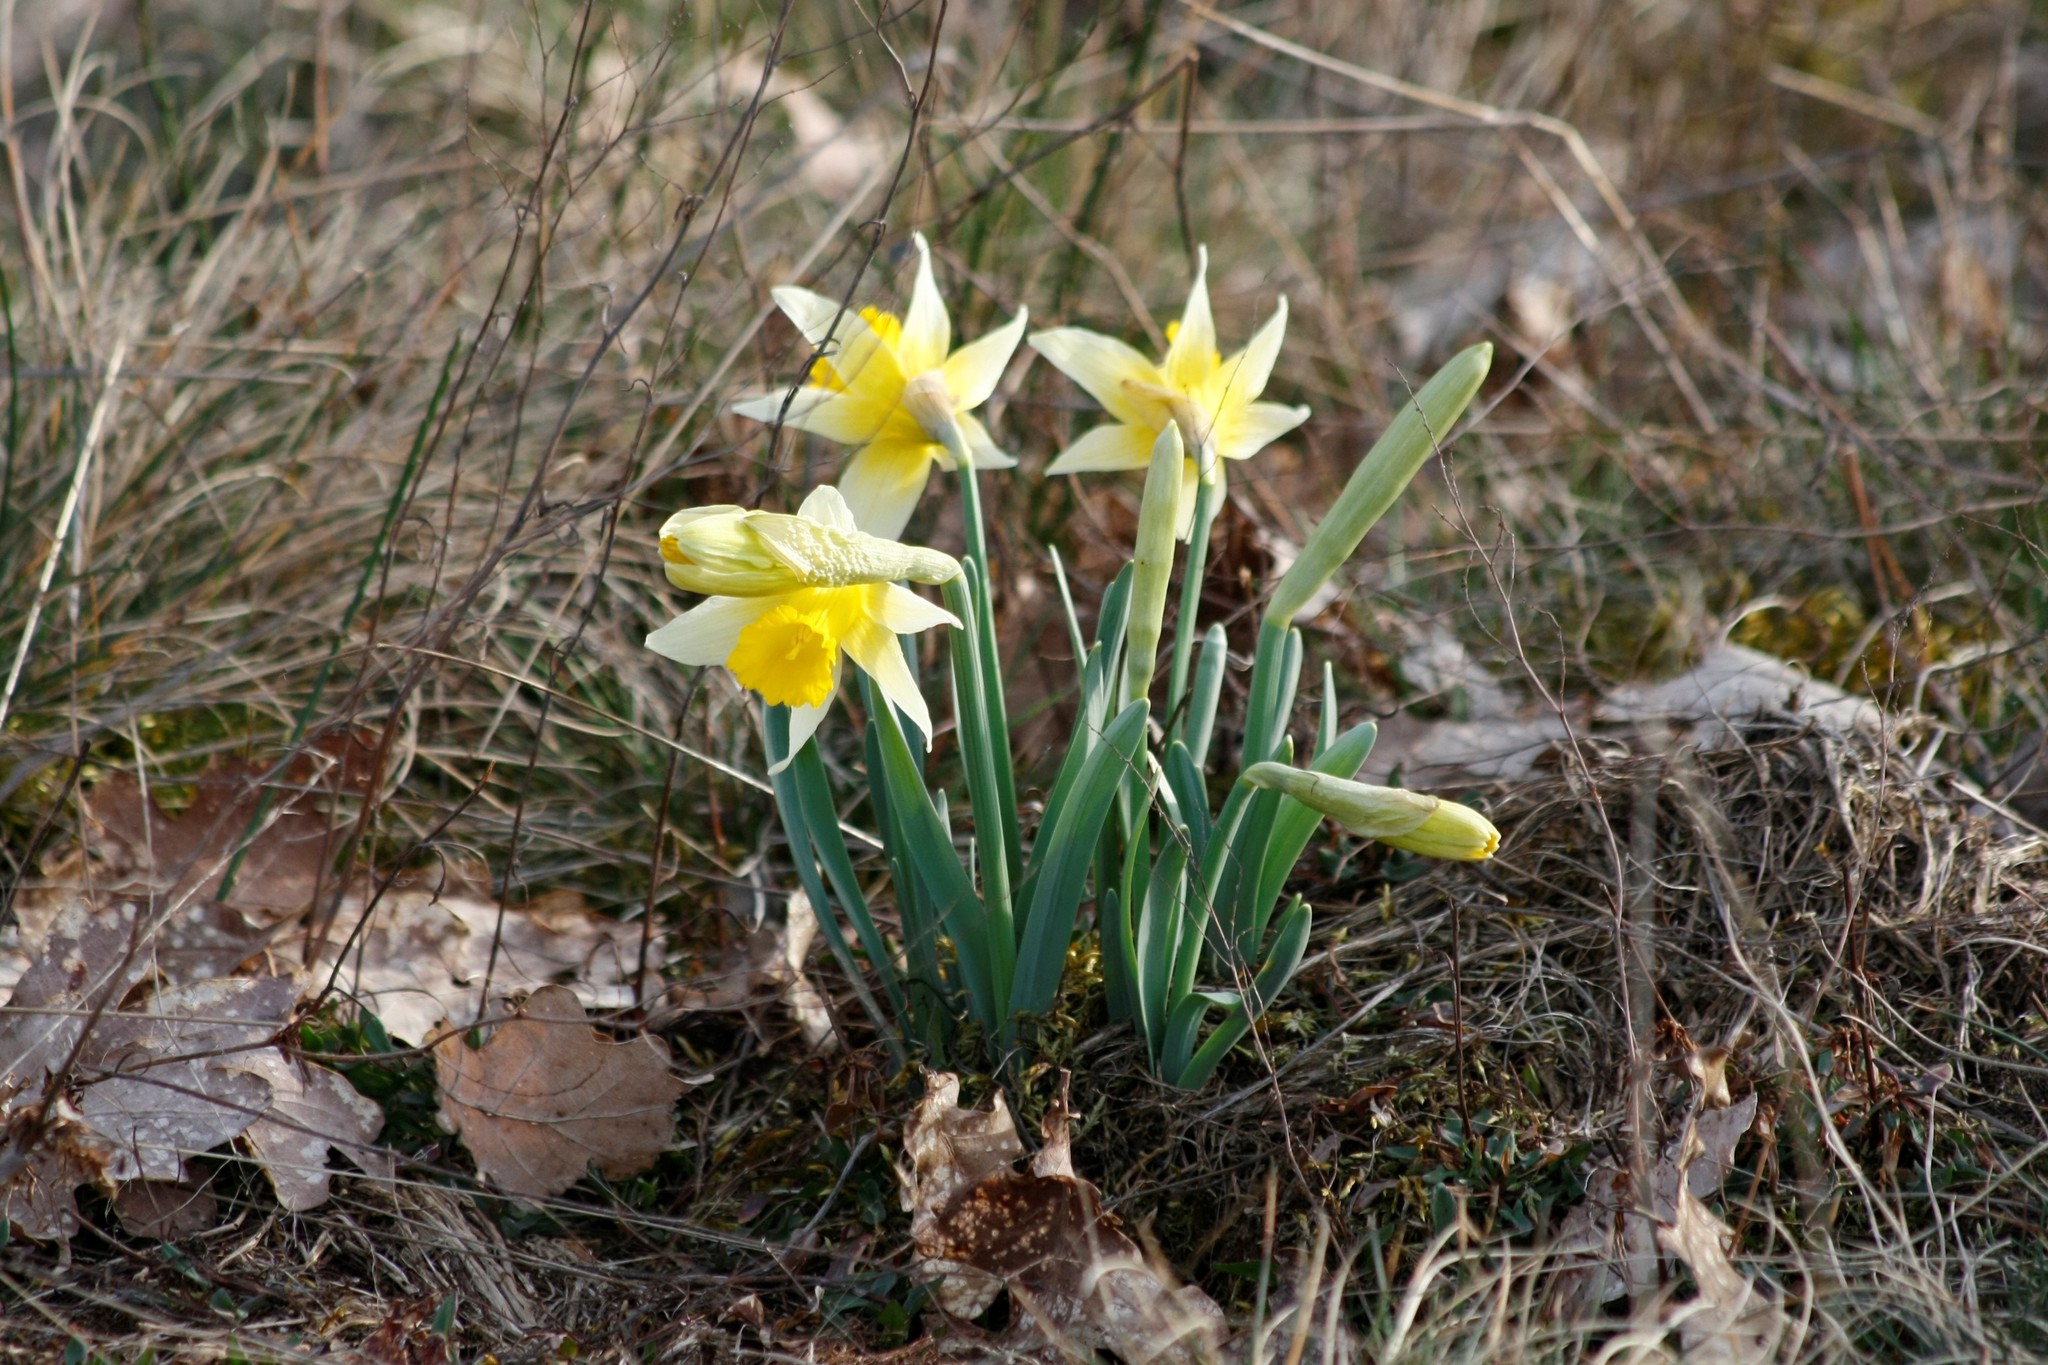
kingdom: Plantae
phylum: Tracheophyta
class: Liliopsida
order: Asparagales
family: Amaryllidaceae
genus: Narcissus
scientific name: Narcissus pseudonarcissus
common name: Daffodil
